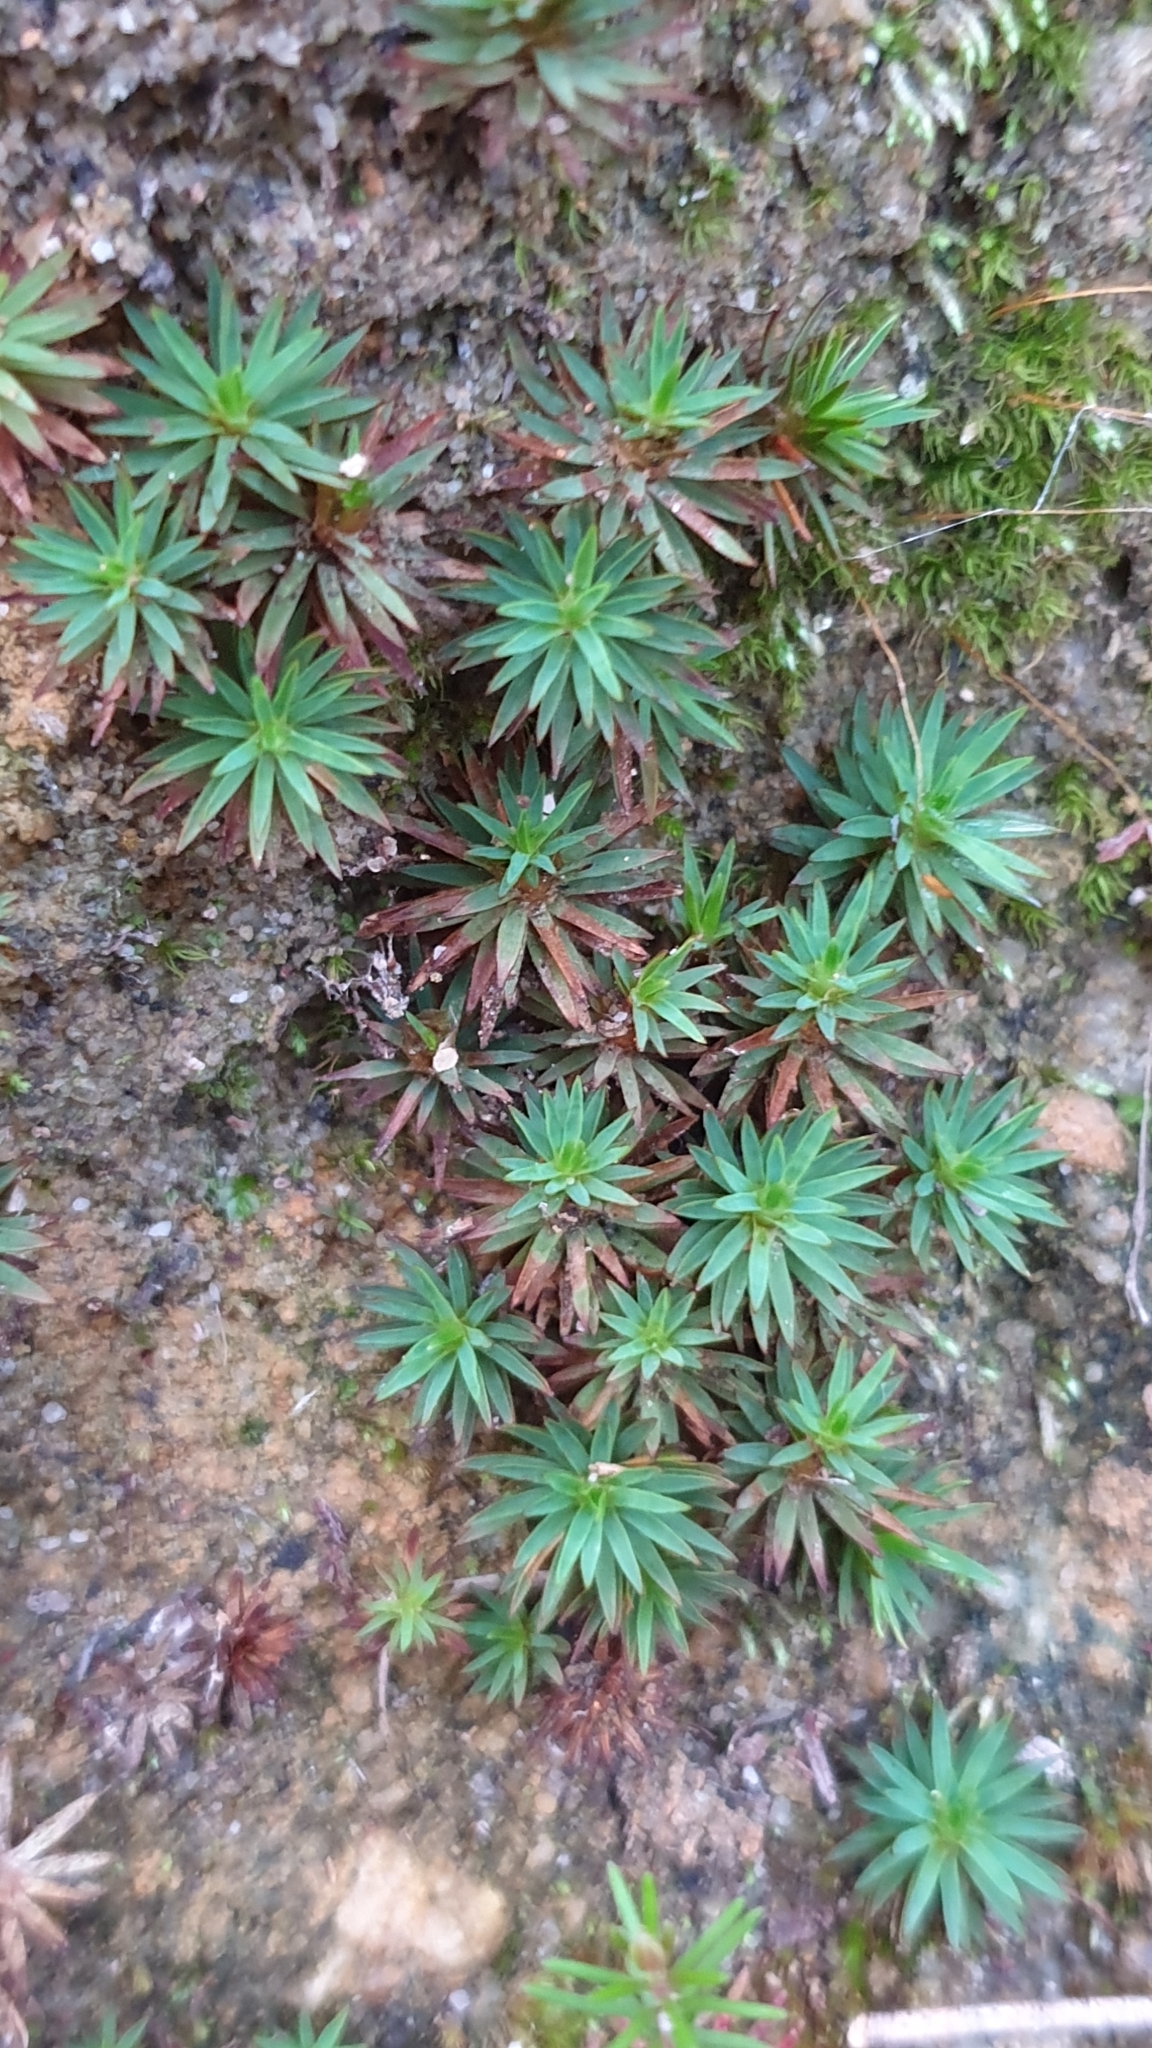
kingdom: Plantae
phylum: Bryophyta
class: Polytrichopsida
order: Polytrichales
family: Polytrichaceae
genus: Dawsonia
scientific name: Dawsonia longiseta
